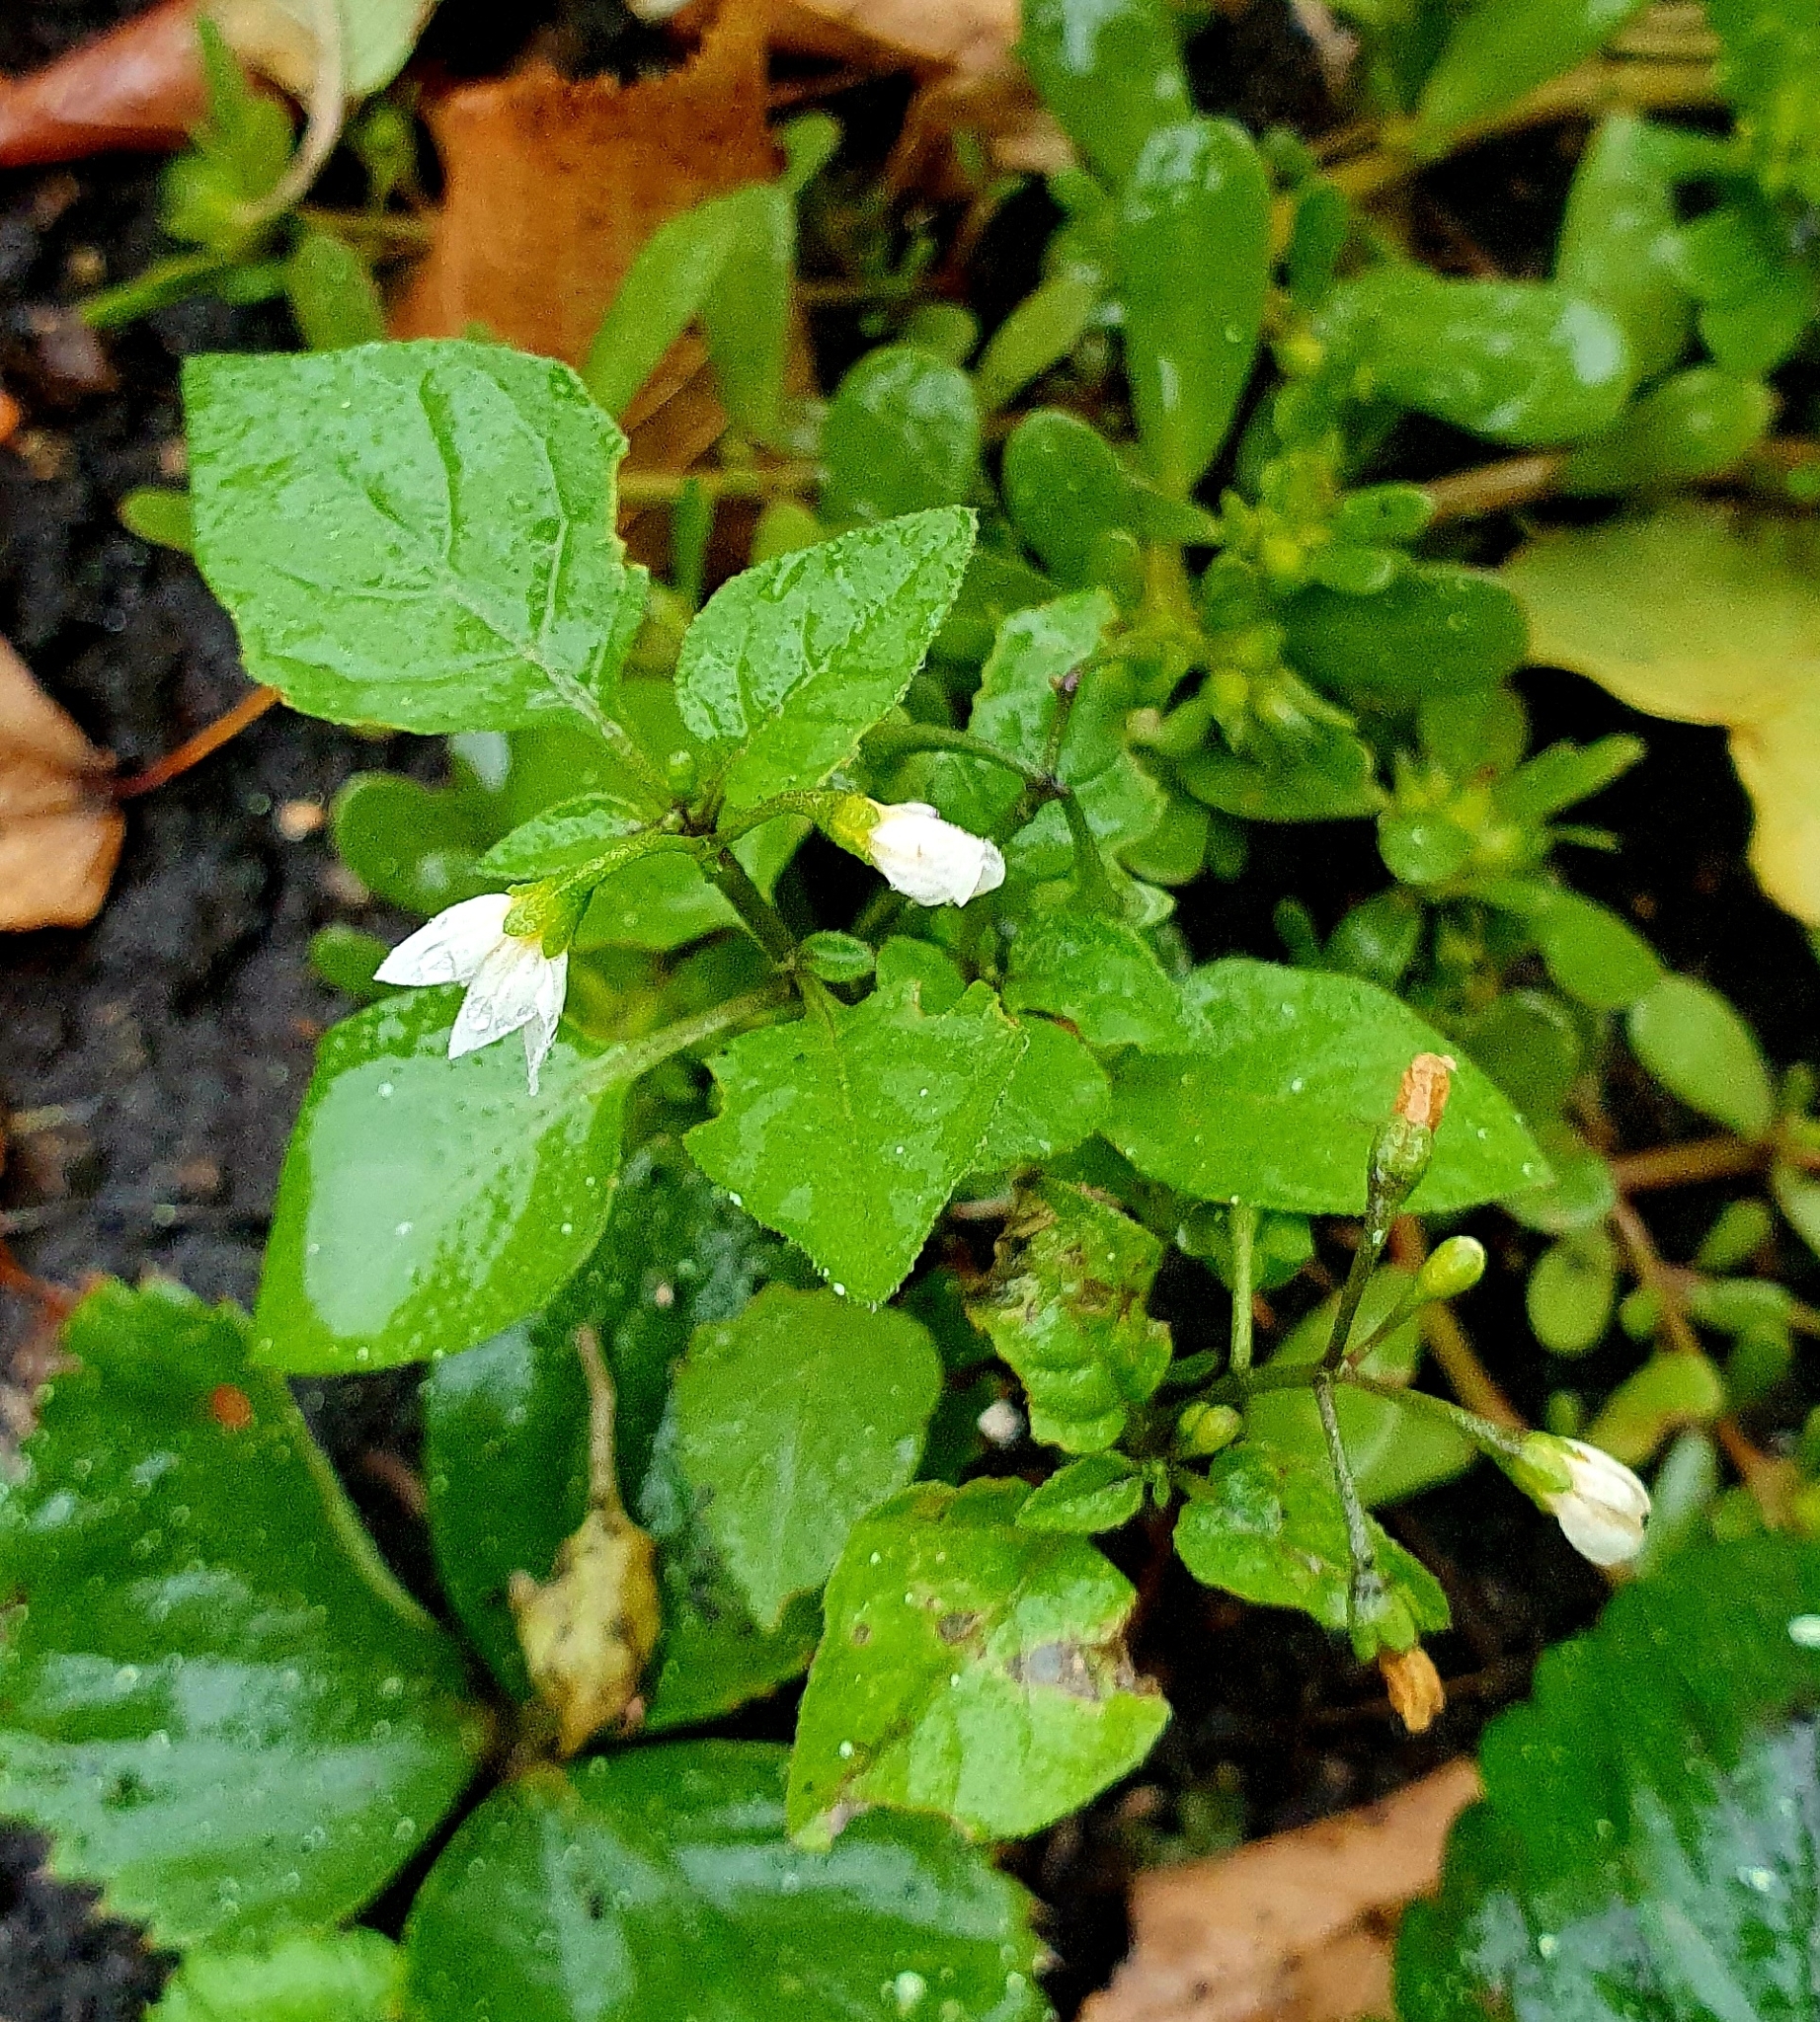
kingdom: Plantae
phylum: Tracheophyta
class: Magnoliopsida
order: Solanales
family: Solanaceae
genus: Solanum
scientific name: Solanum nigrum
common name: Black nightshade
